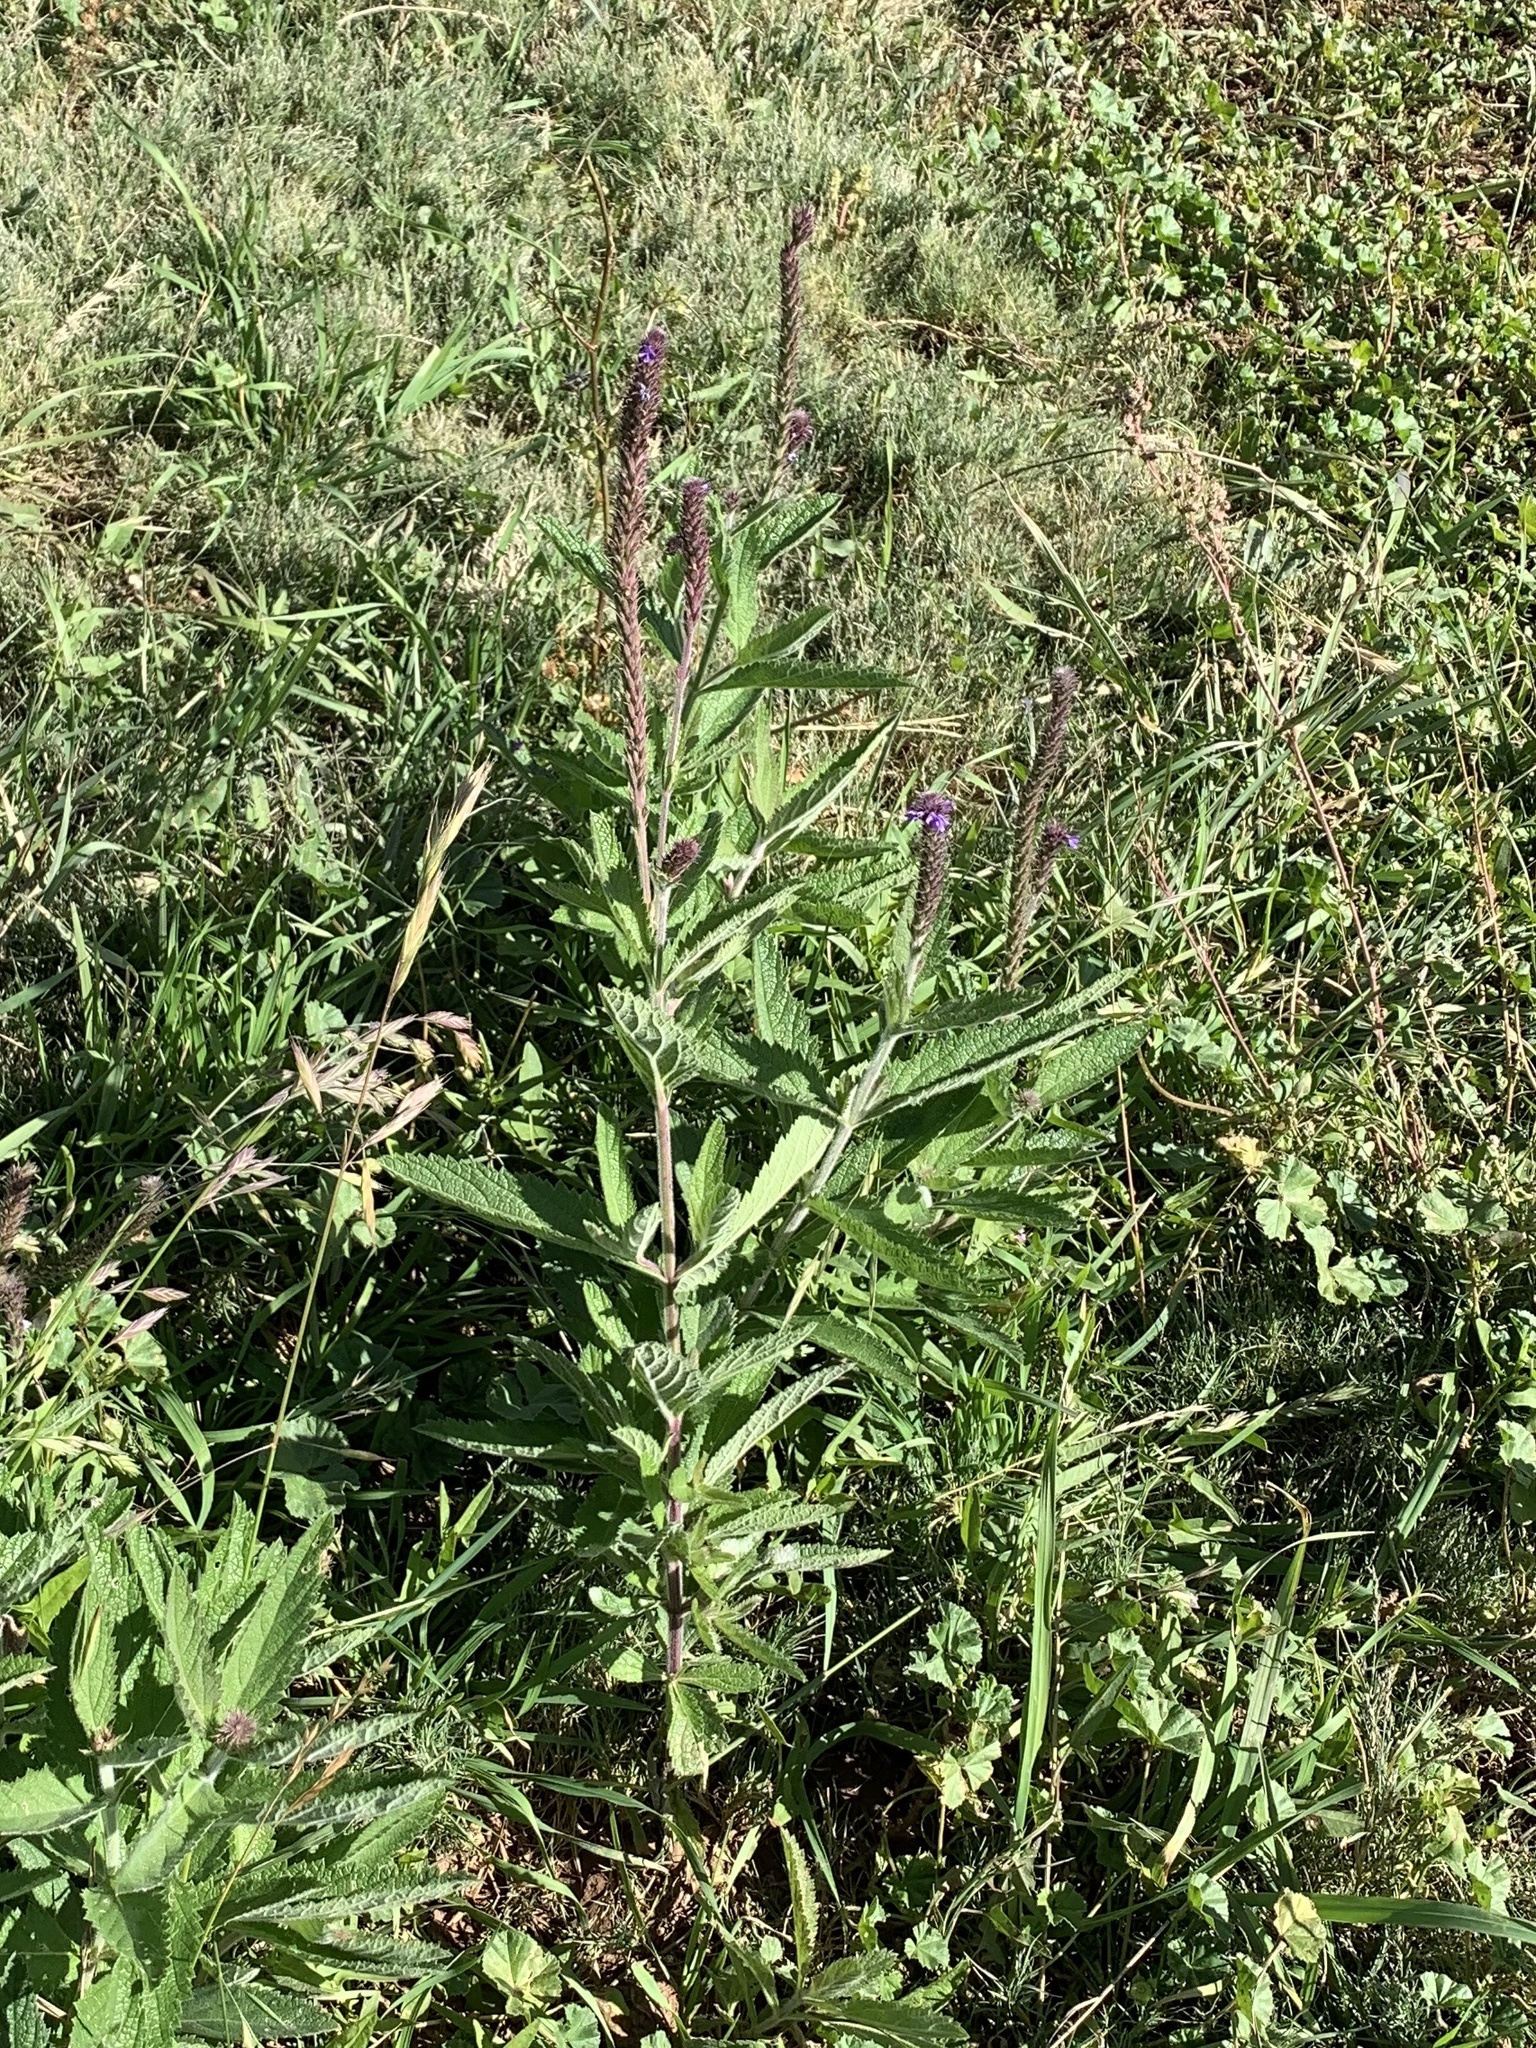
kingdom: Plantae
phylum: Tracheophyta
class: Magnoliopsida
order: Lamiales
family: Verbenaceae
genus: Verbena
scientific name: Verbena macdougalii
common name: New mexico vervain
